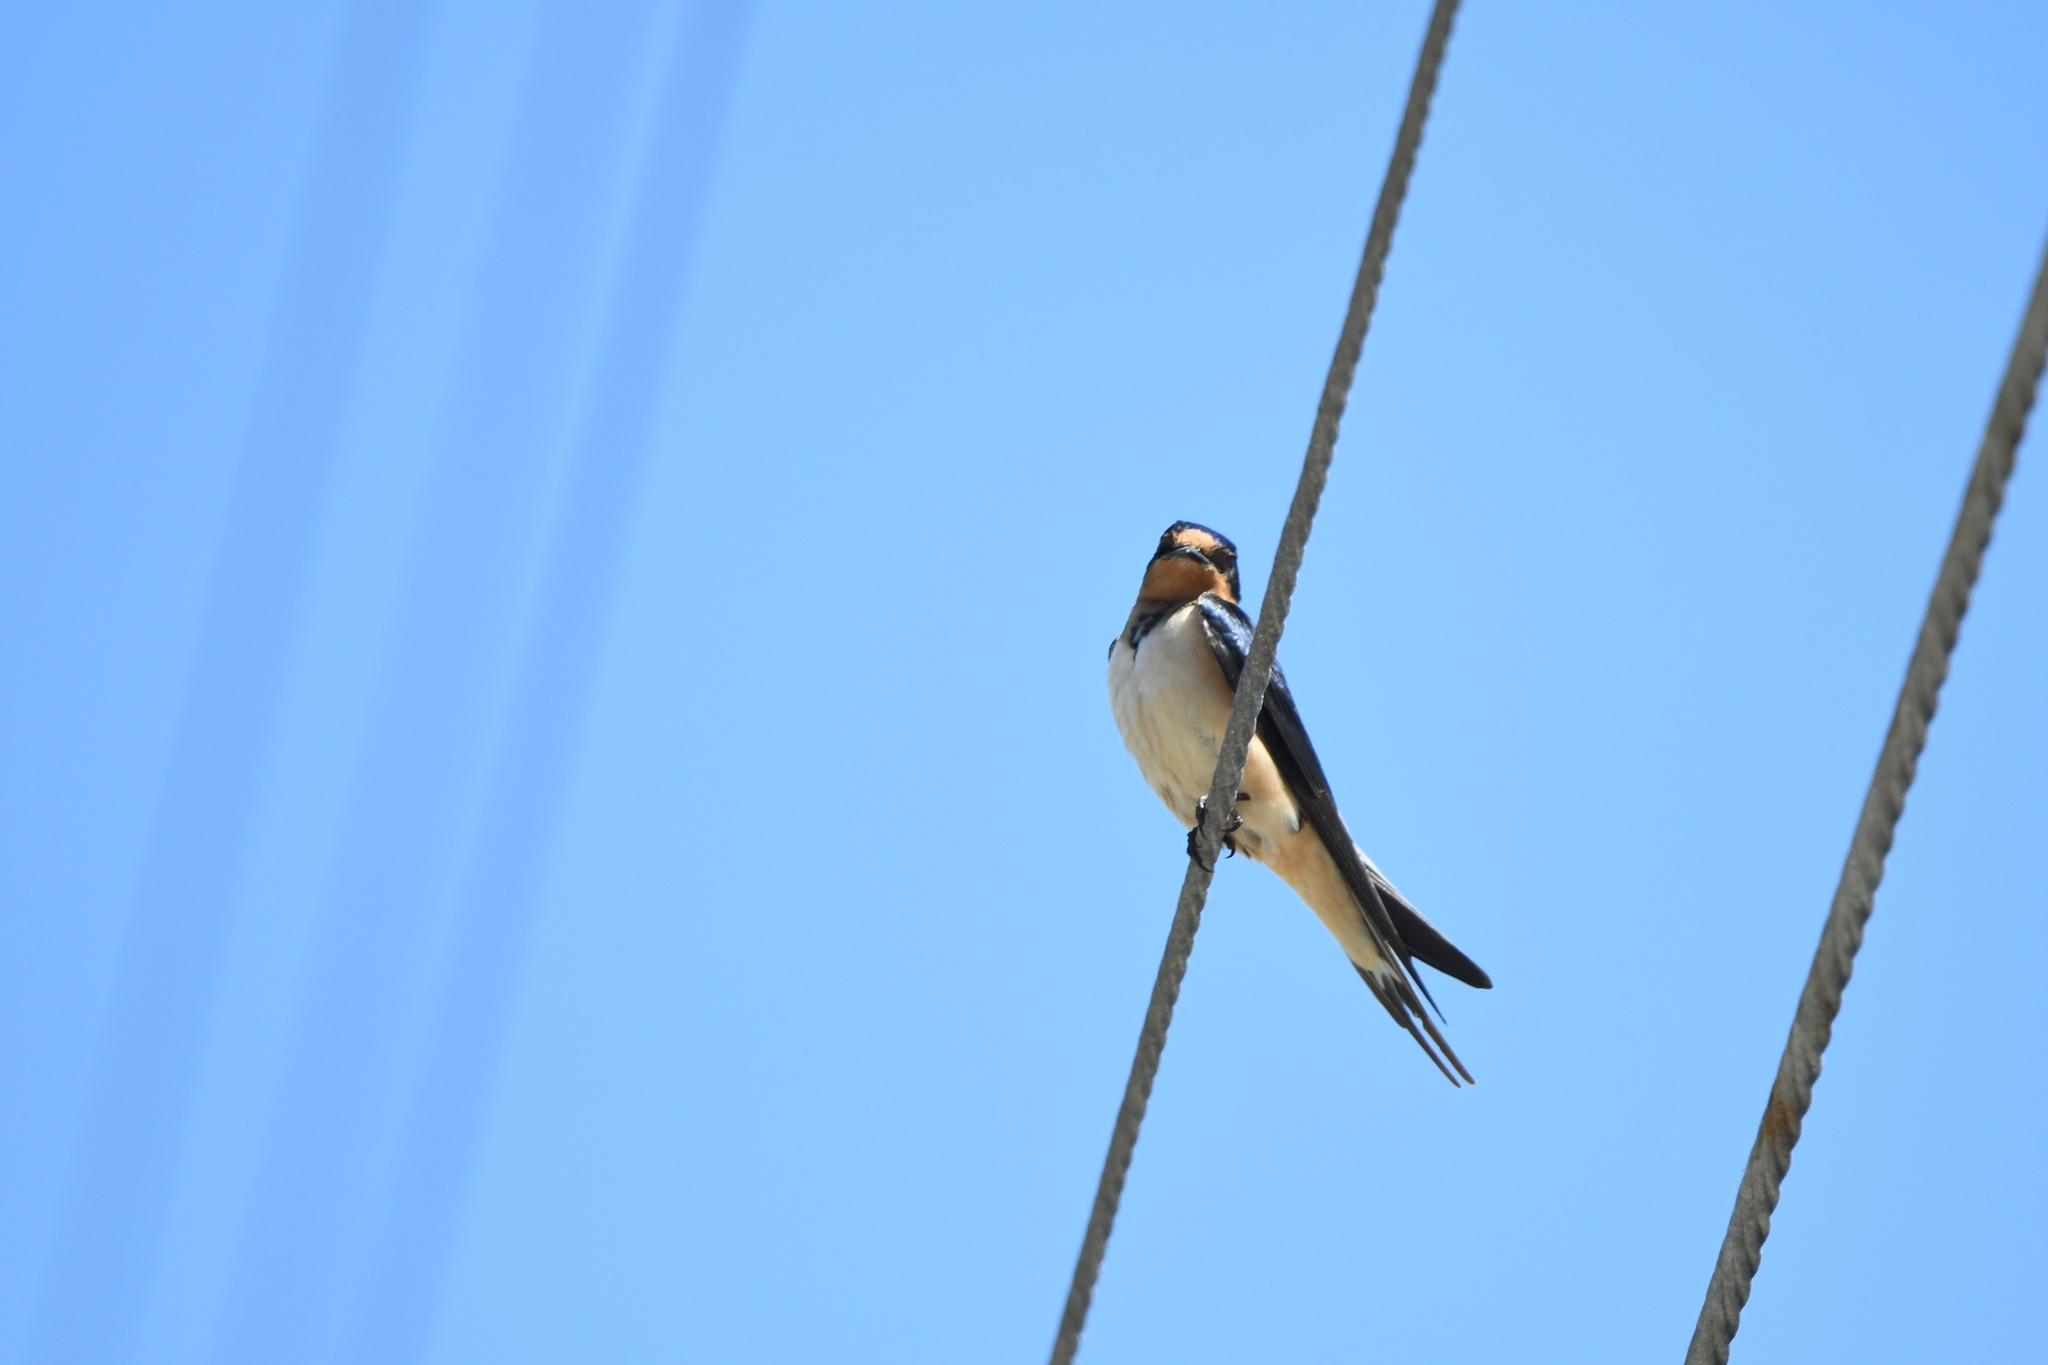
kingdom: Animalia
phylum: Chordata
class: Aves
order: Passeriformes
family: Hirundinidae
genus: Hirundo
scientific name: Hirundo rustica
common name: Barn swallow
